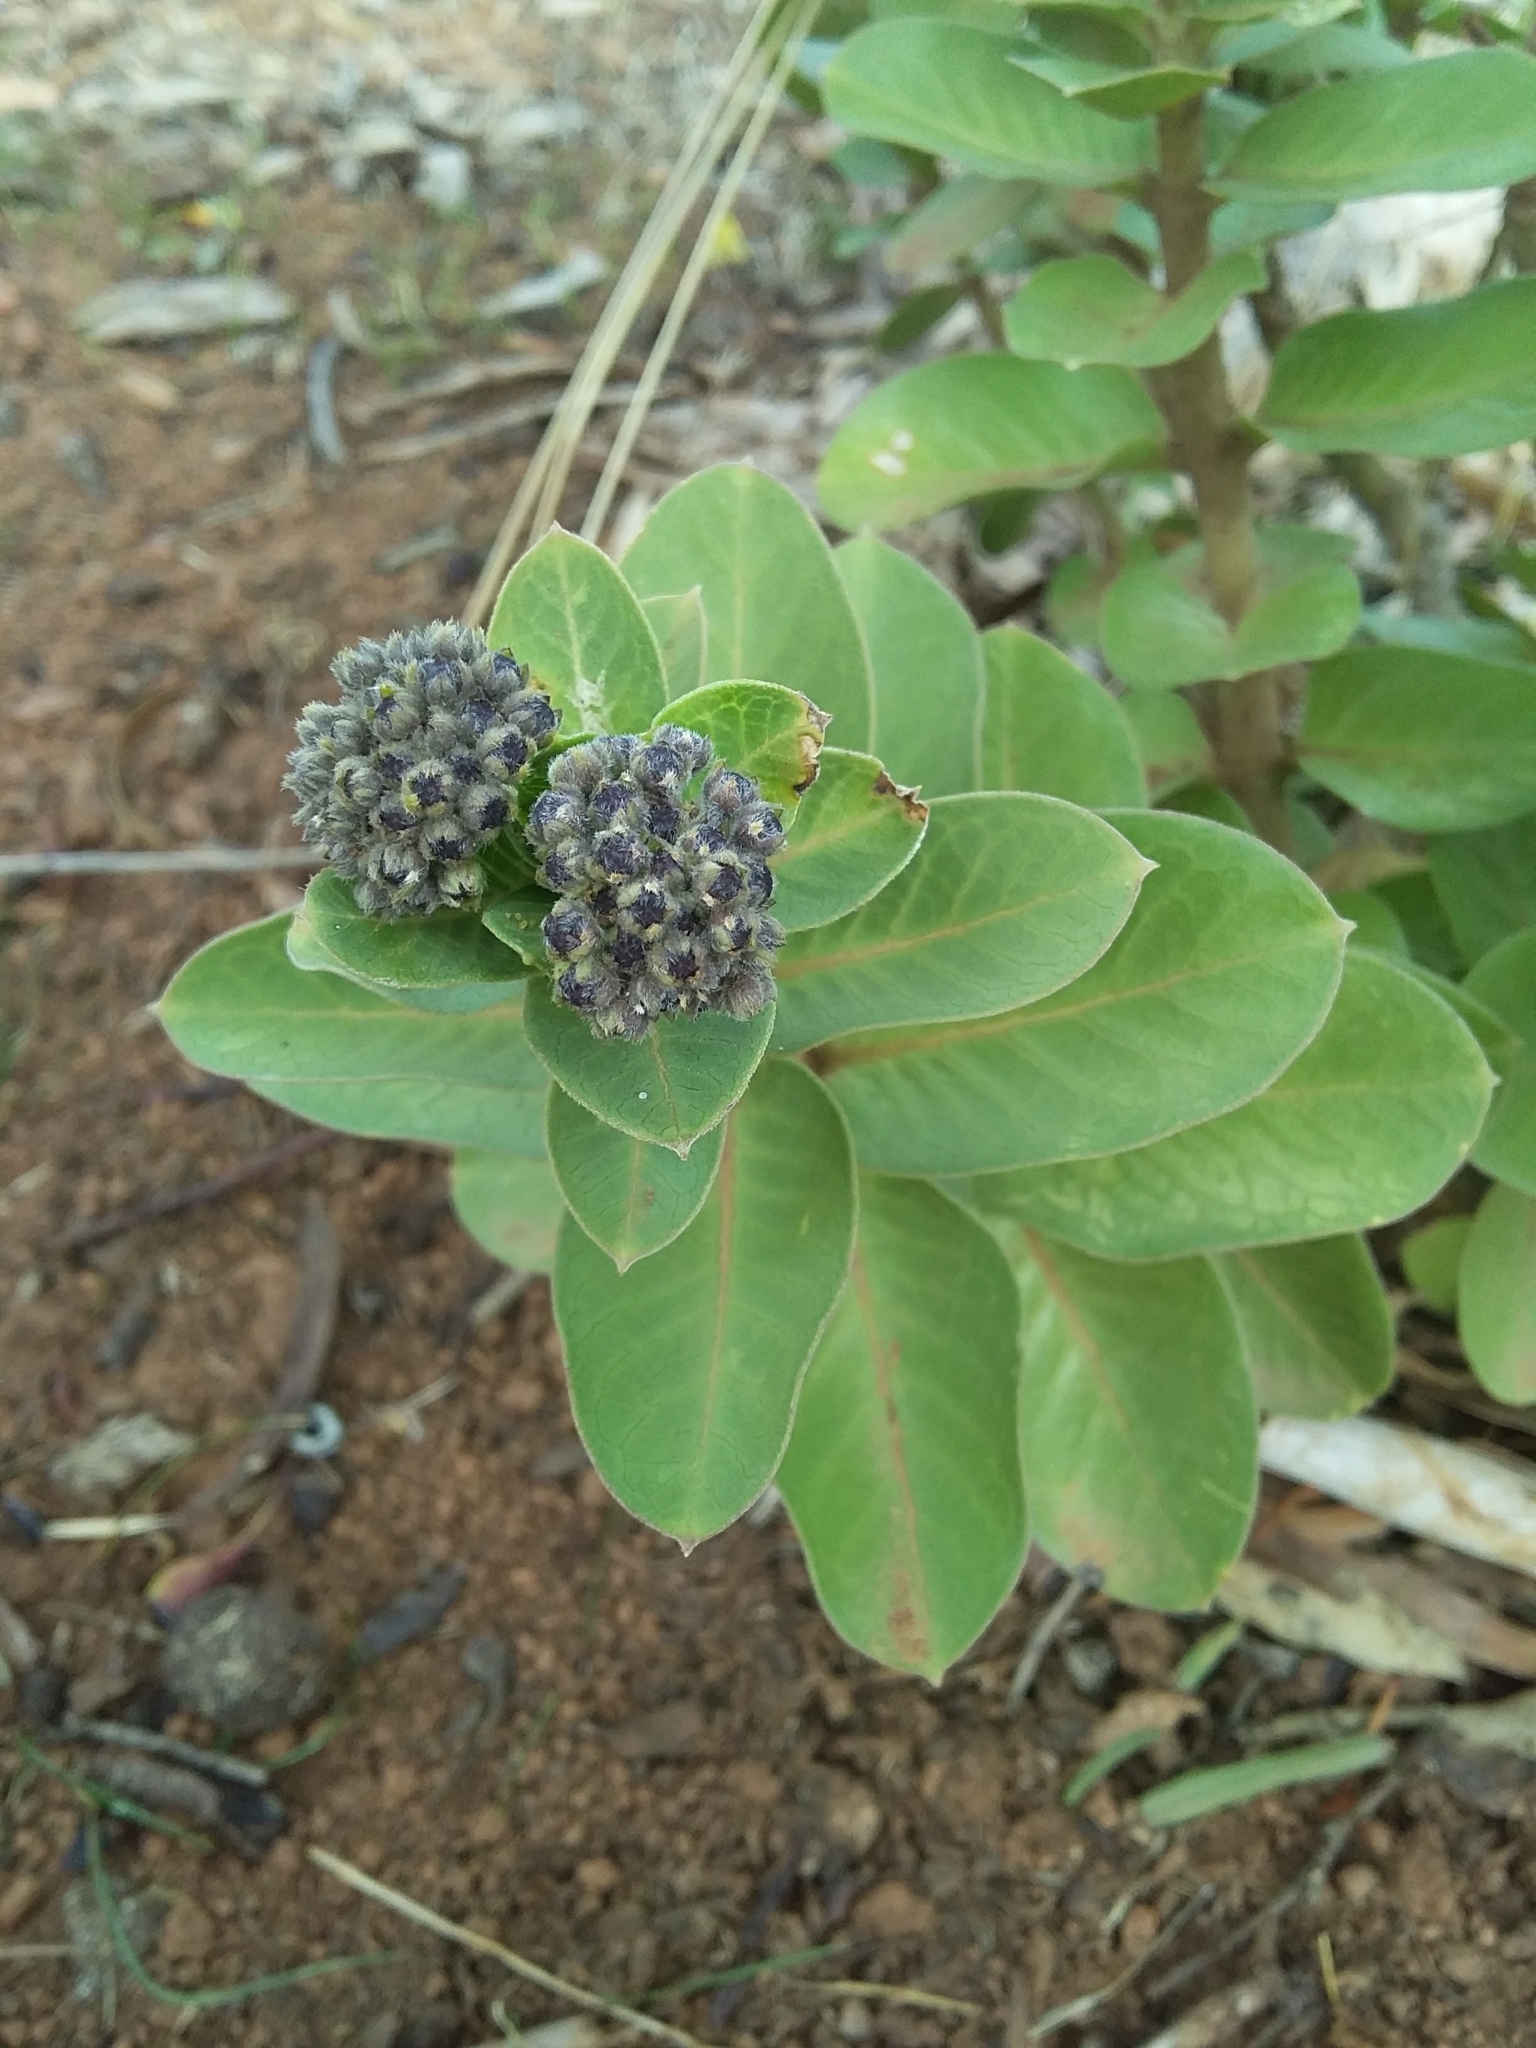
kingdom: Plantae
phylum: Tracheophyta
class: Magnoliopsida
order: Gentianales
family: Apocynaceae
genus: Gomphocarpus
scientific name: Gomphocarpus cancellatus
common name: Wild cotton
